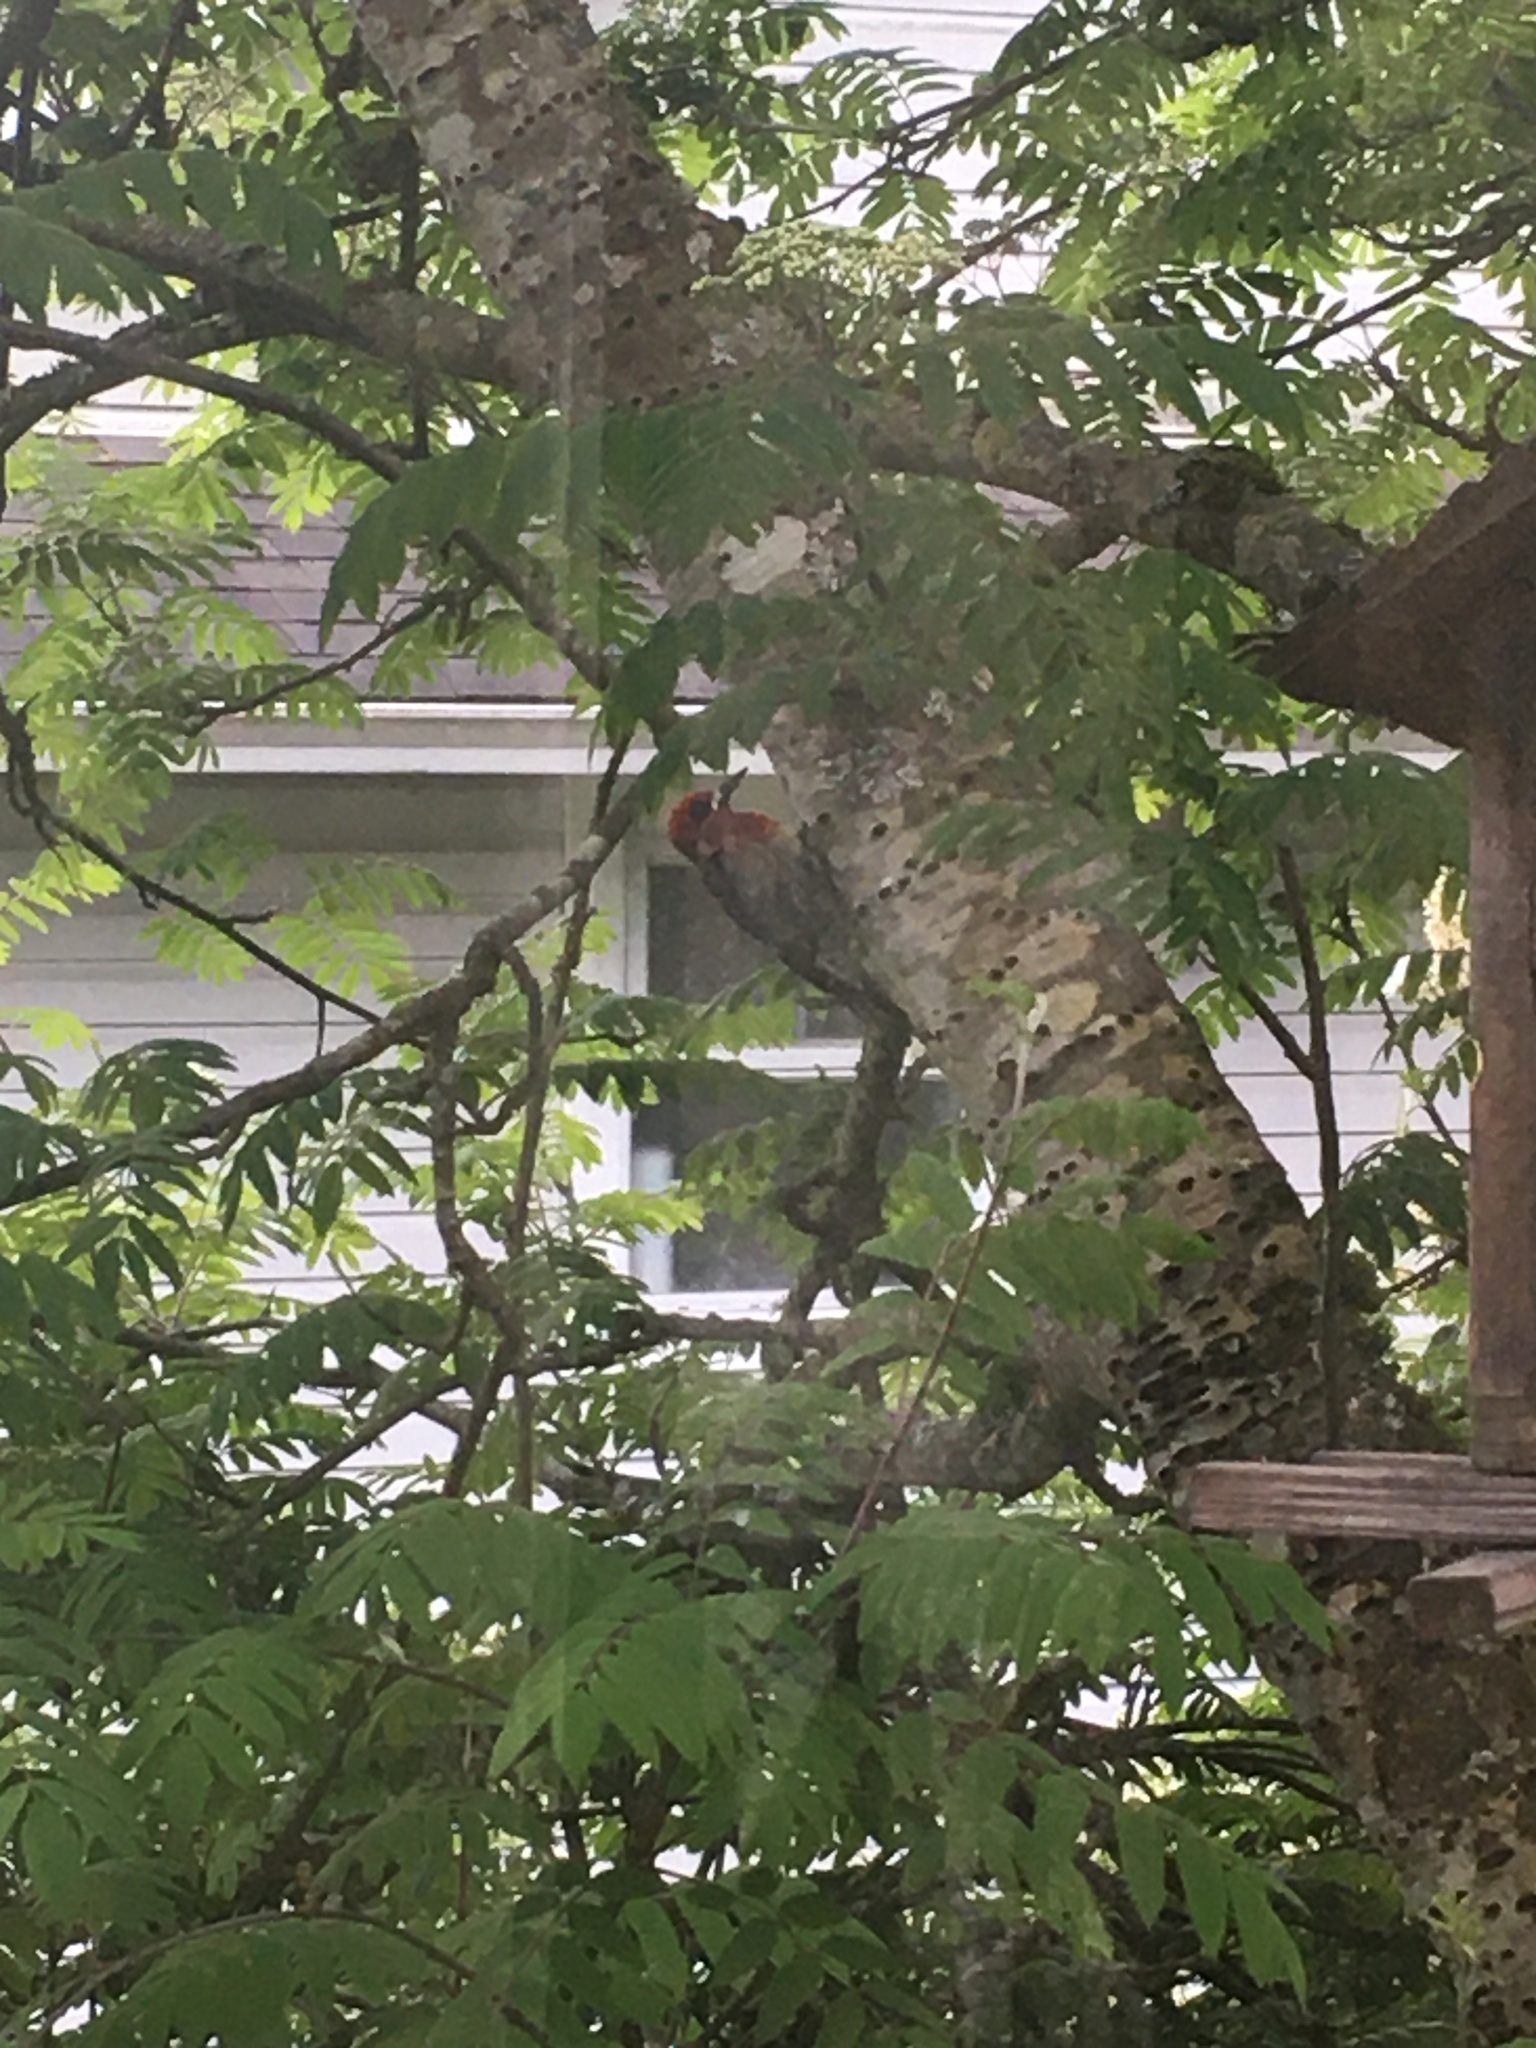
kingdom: Animalia
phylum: Chordata
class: Aves
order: Piciformes
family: Picidae
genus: Sphyrapicus
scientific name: Sphyrapicus ruber
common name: Red-breasted sapsucker
